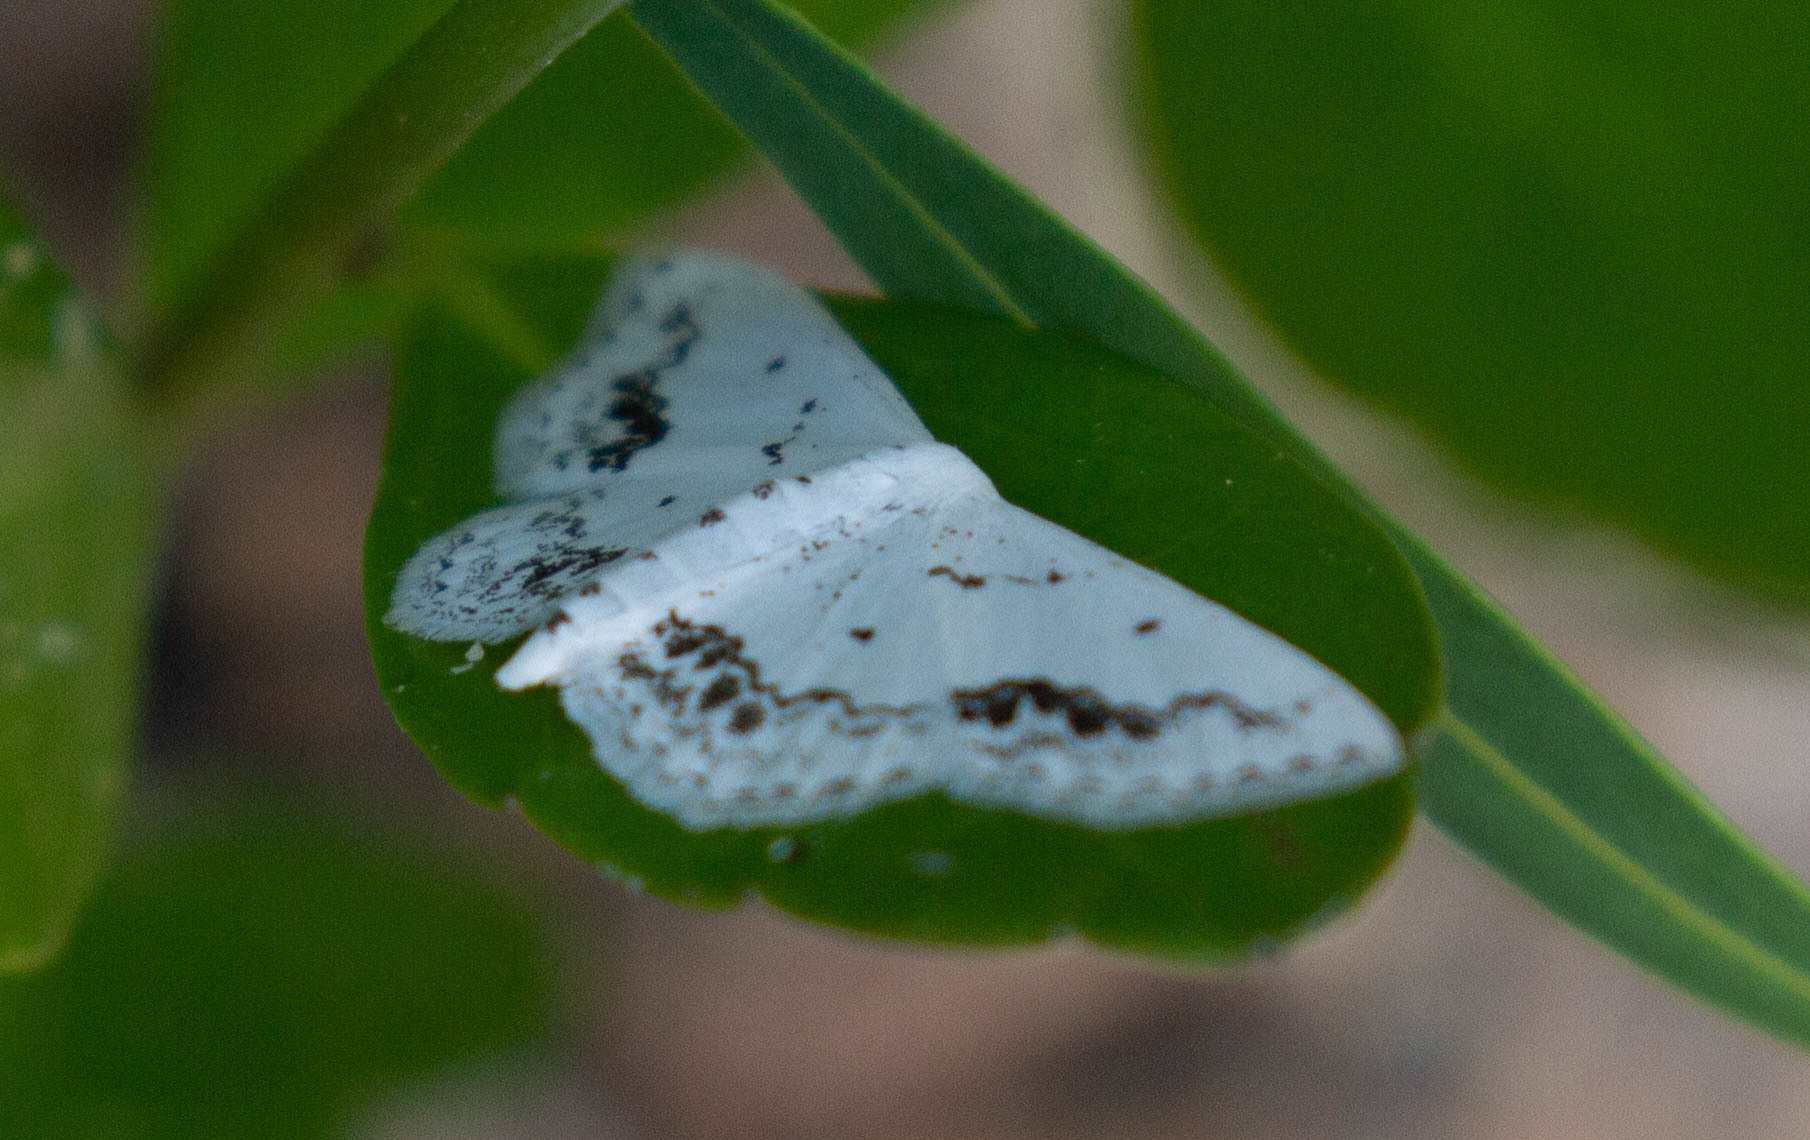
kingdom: Animalia
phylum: Arthropoda
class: Insecta
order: Lepidoptera
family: Geometridae
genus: Scopula
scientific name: Scopula purata
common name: Chalky wave moth
